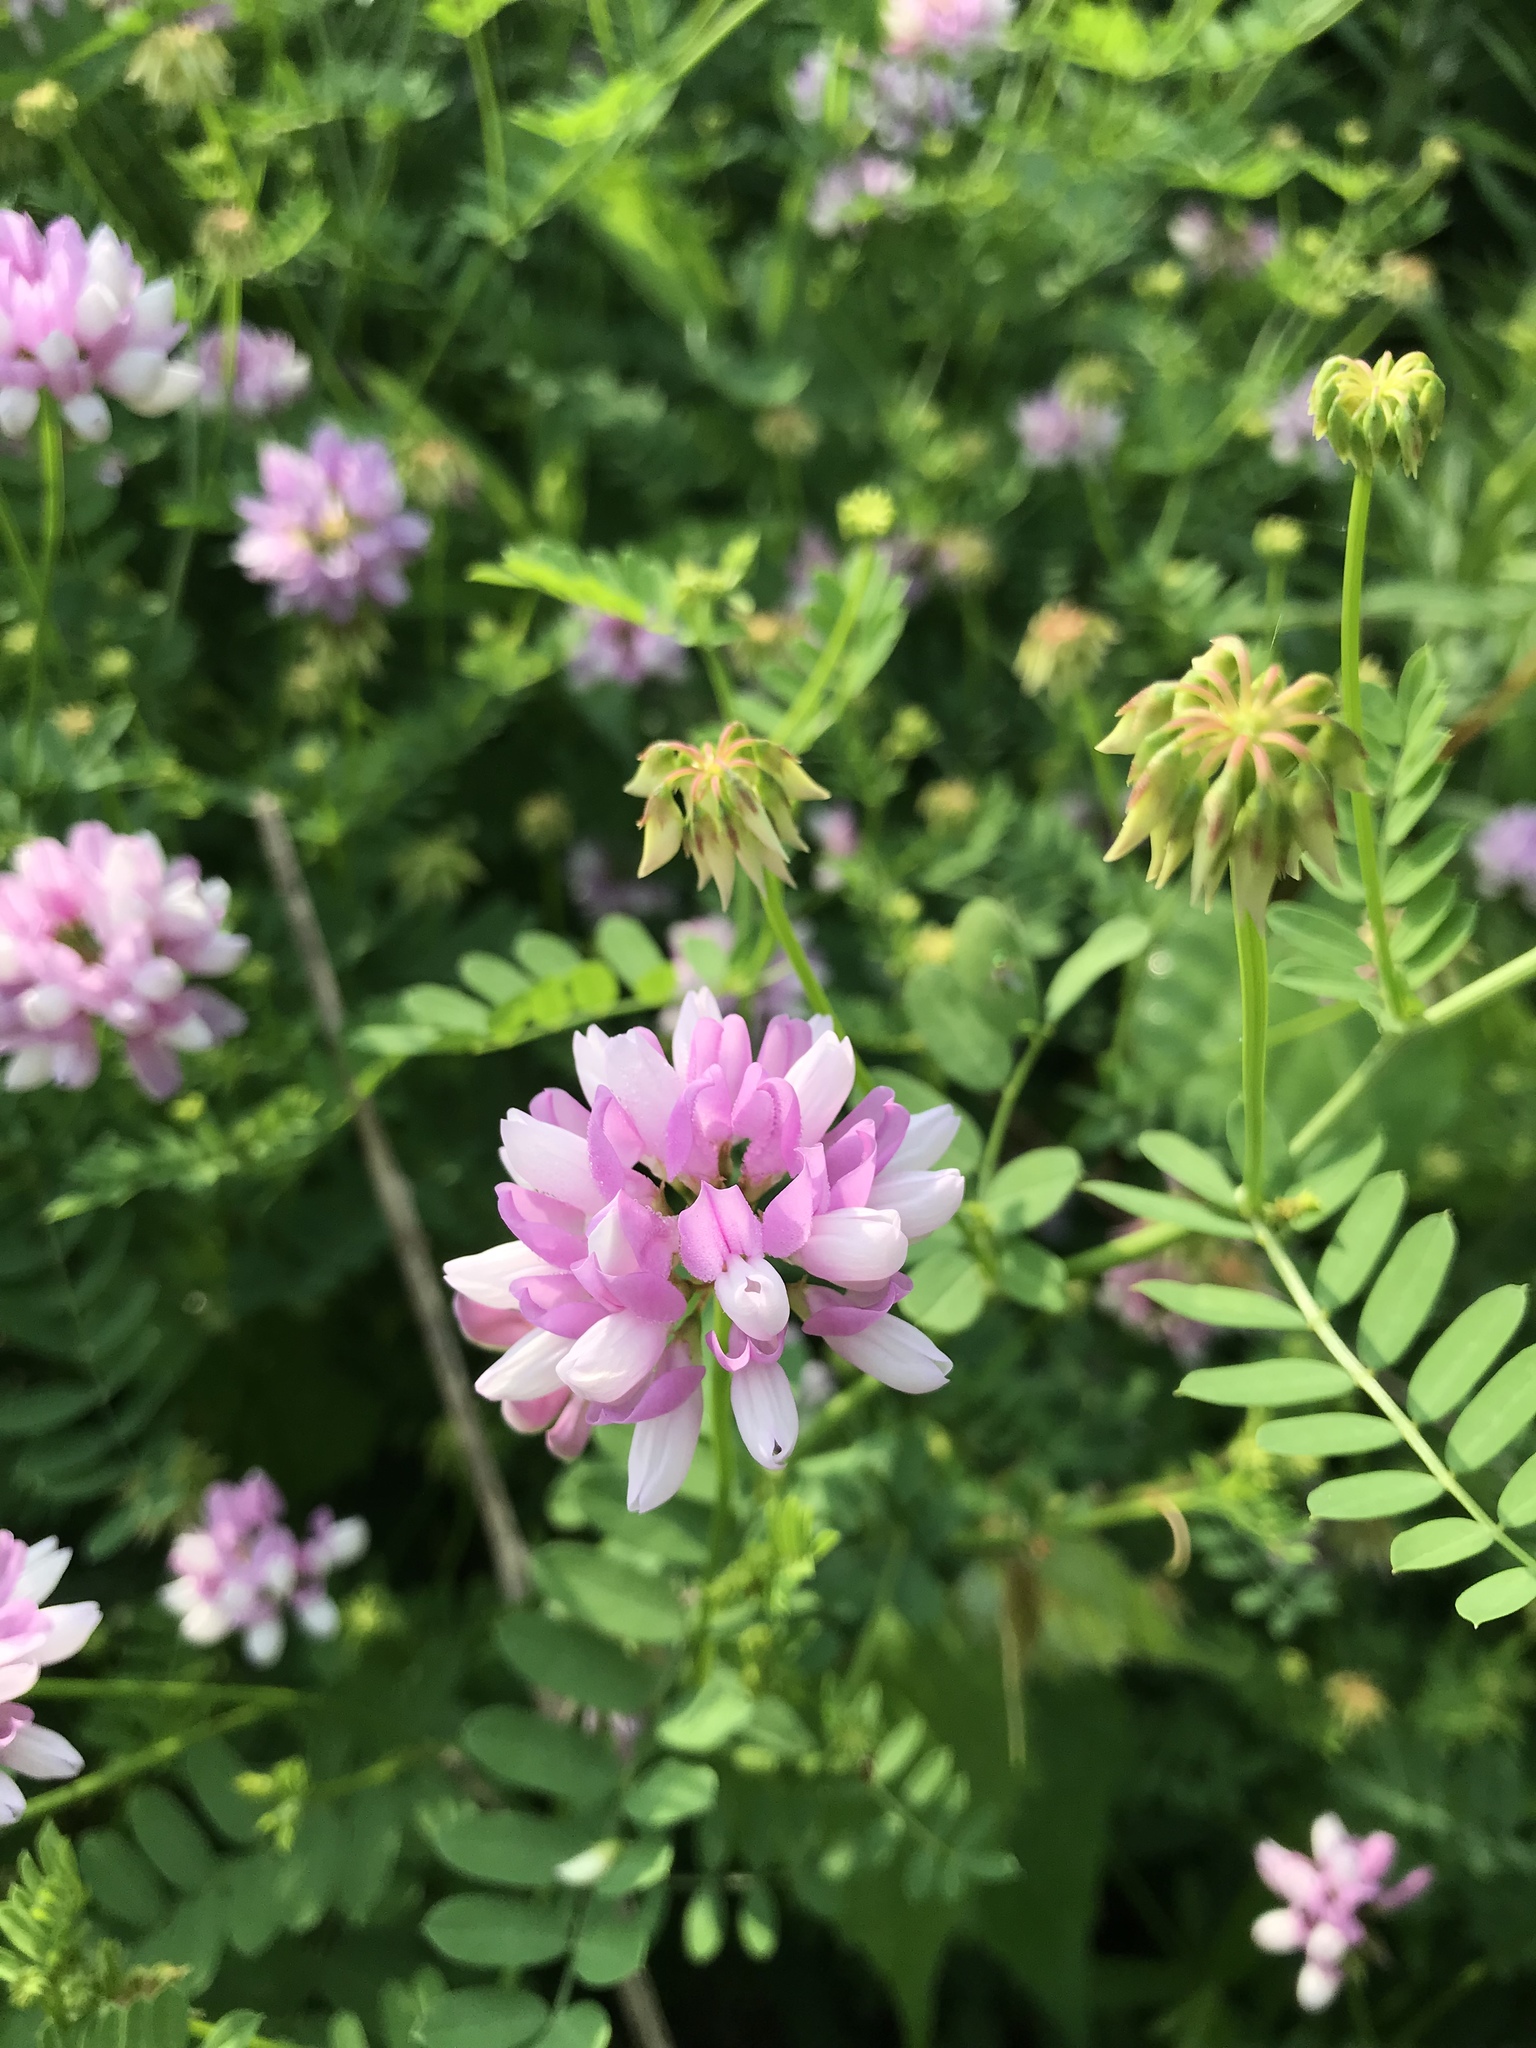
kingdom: Plantae
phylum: Tracheophyta
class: Magnoliopsida
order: Fabales
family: Fabaceae
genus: Coronilla
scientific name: Coronilla varia
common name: Crownvetch
